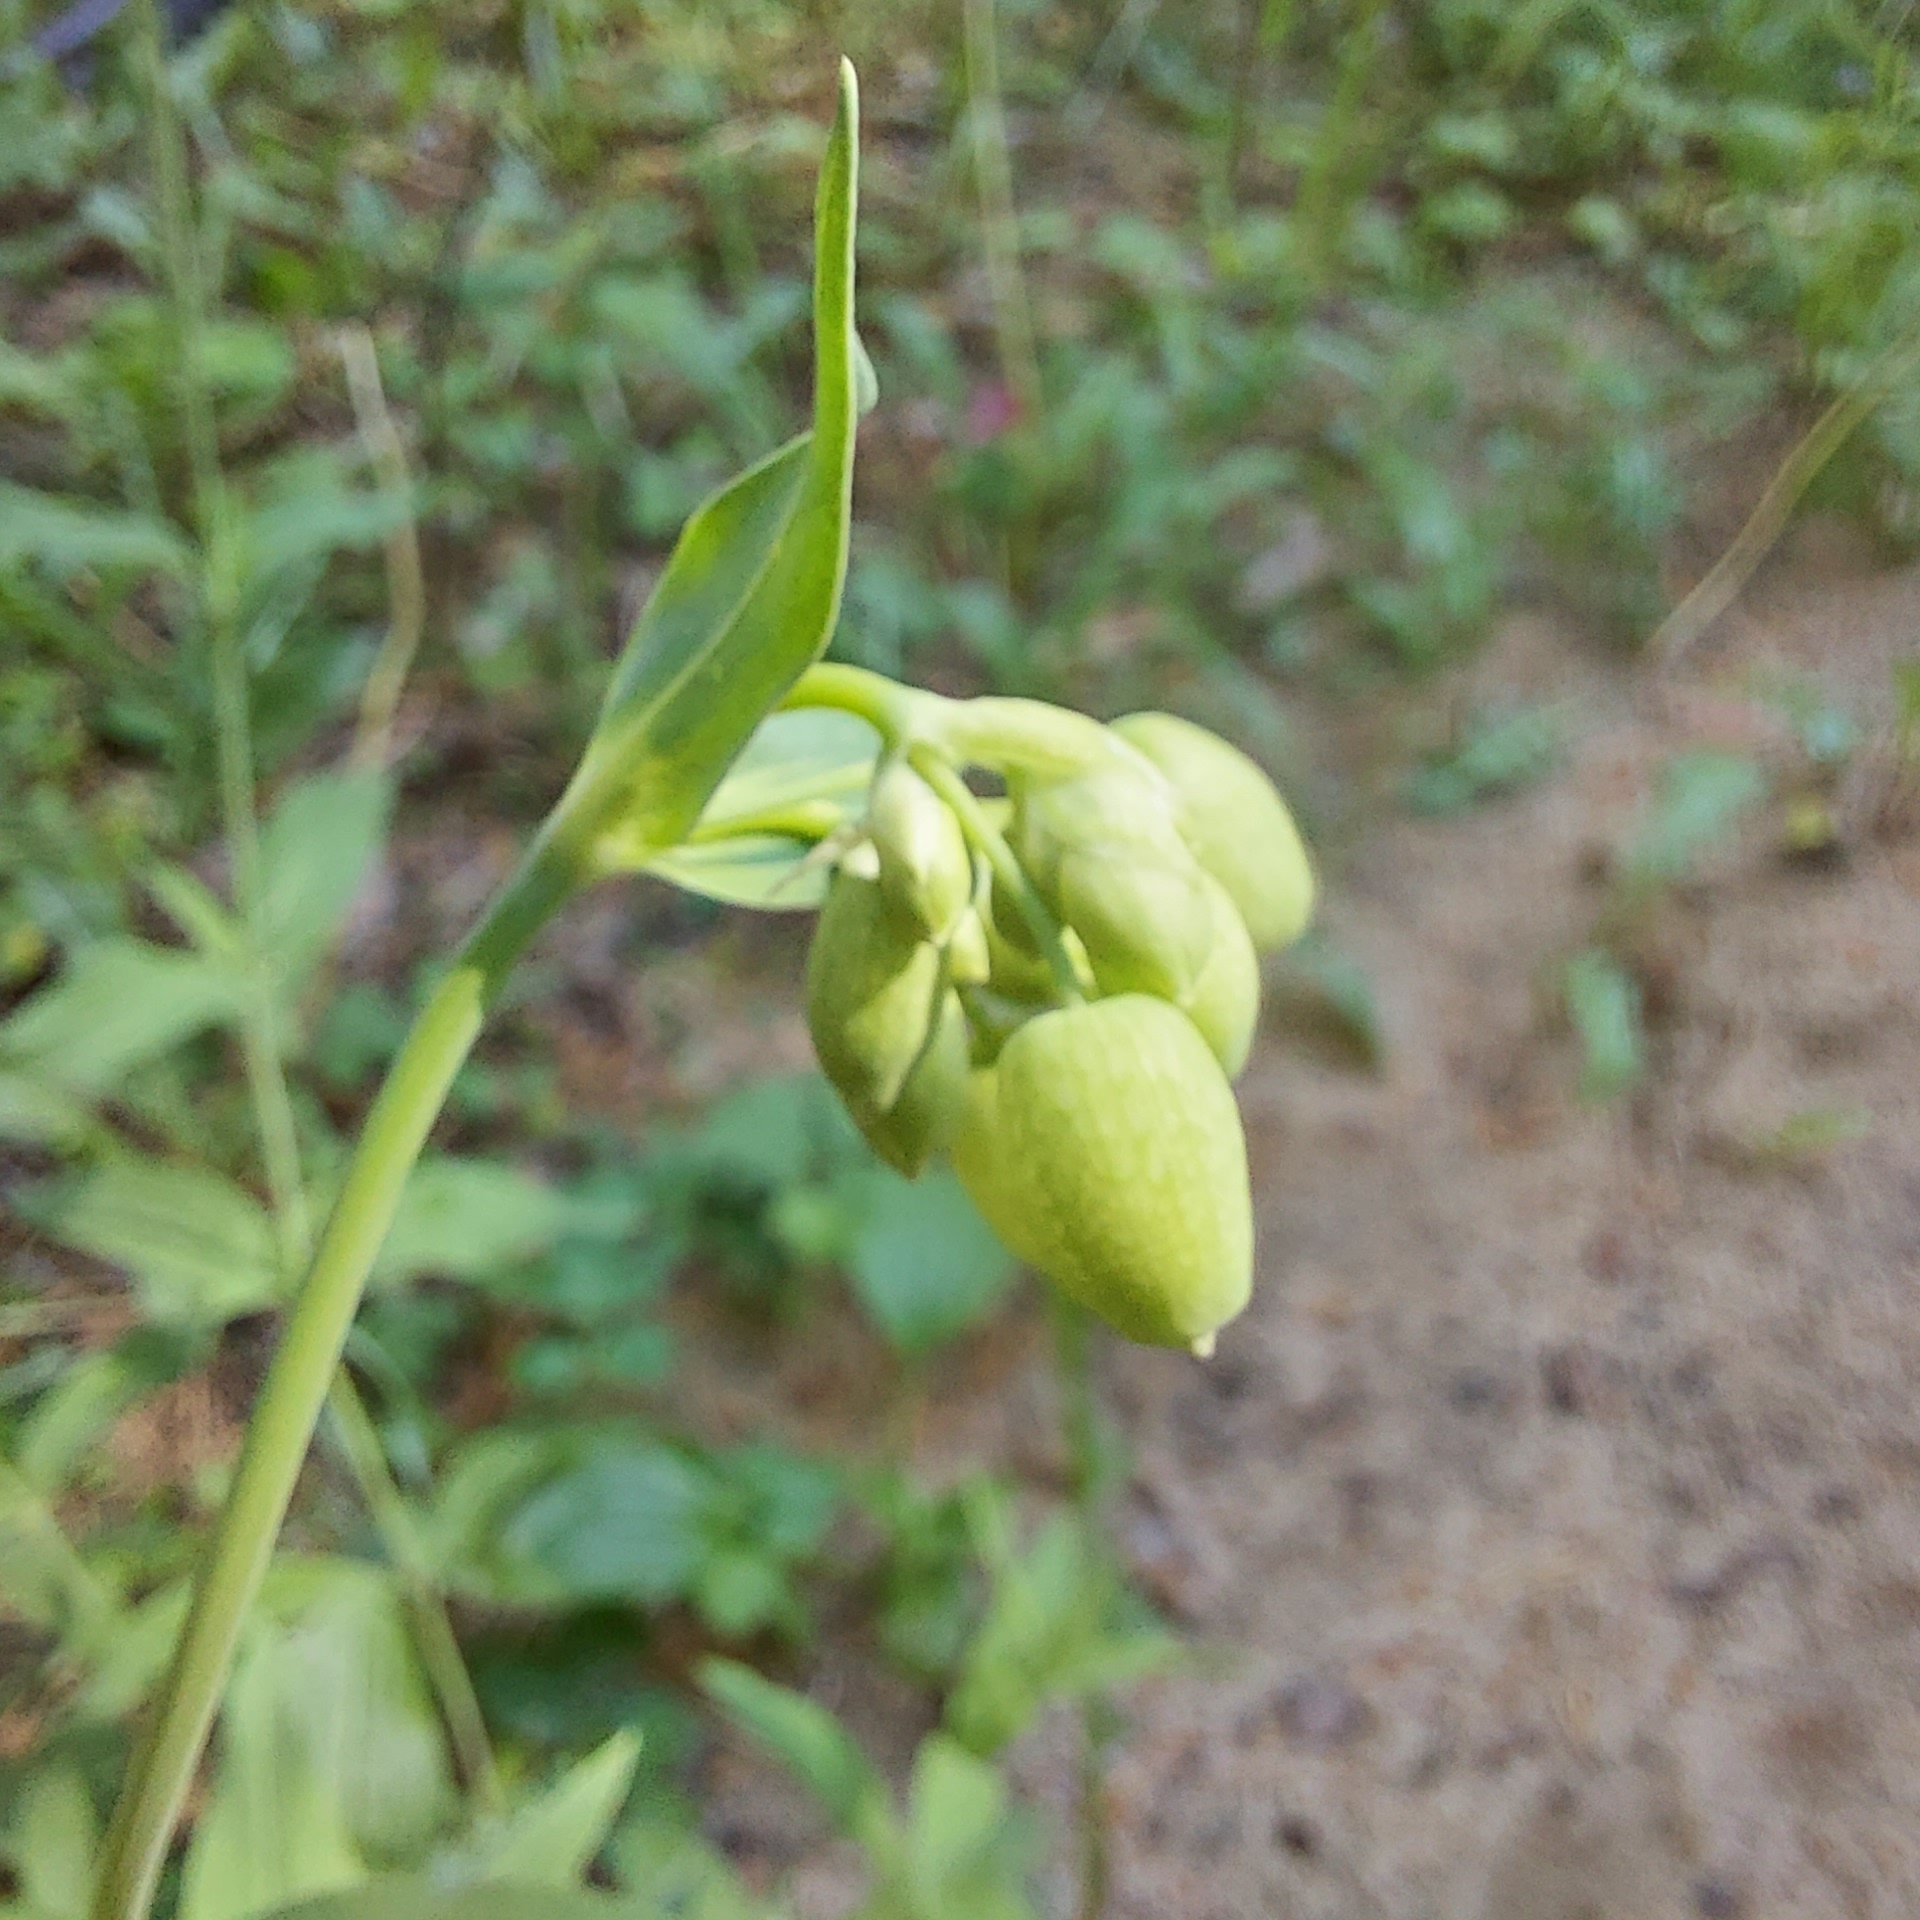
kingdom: Plantae
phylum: Tracheophyta
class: Magnoliopsida
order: Caryophyllales
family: Caryophyllaceae
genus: Silene
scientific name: Silene vulgaris
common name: Bladder campion
